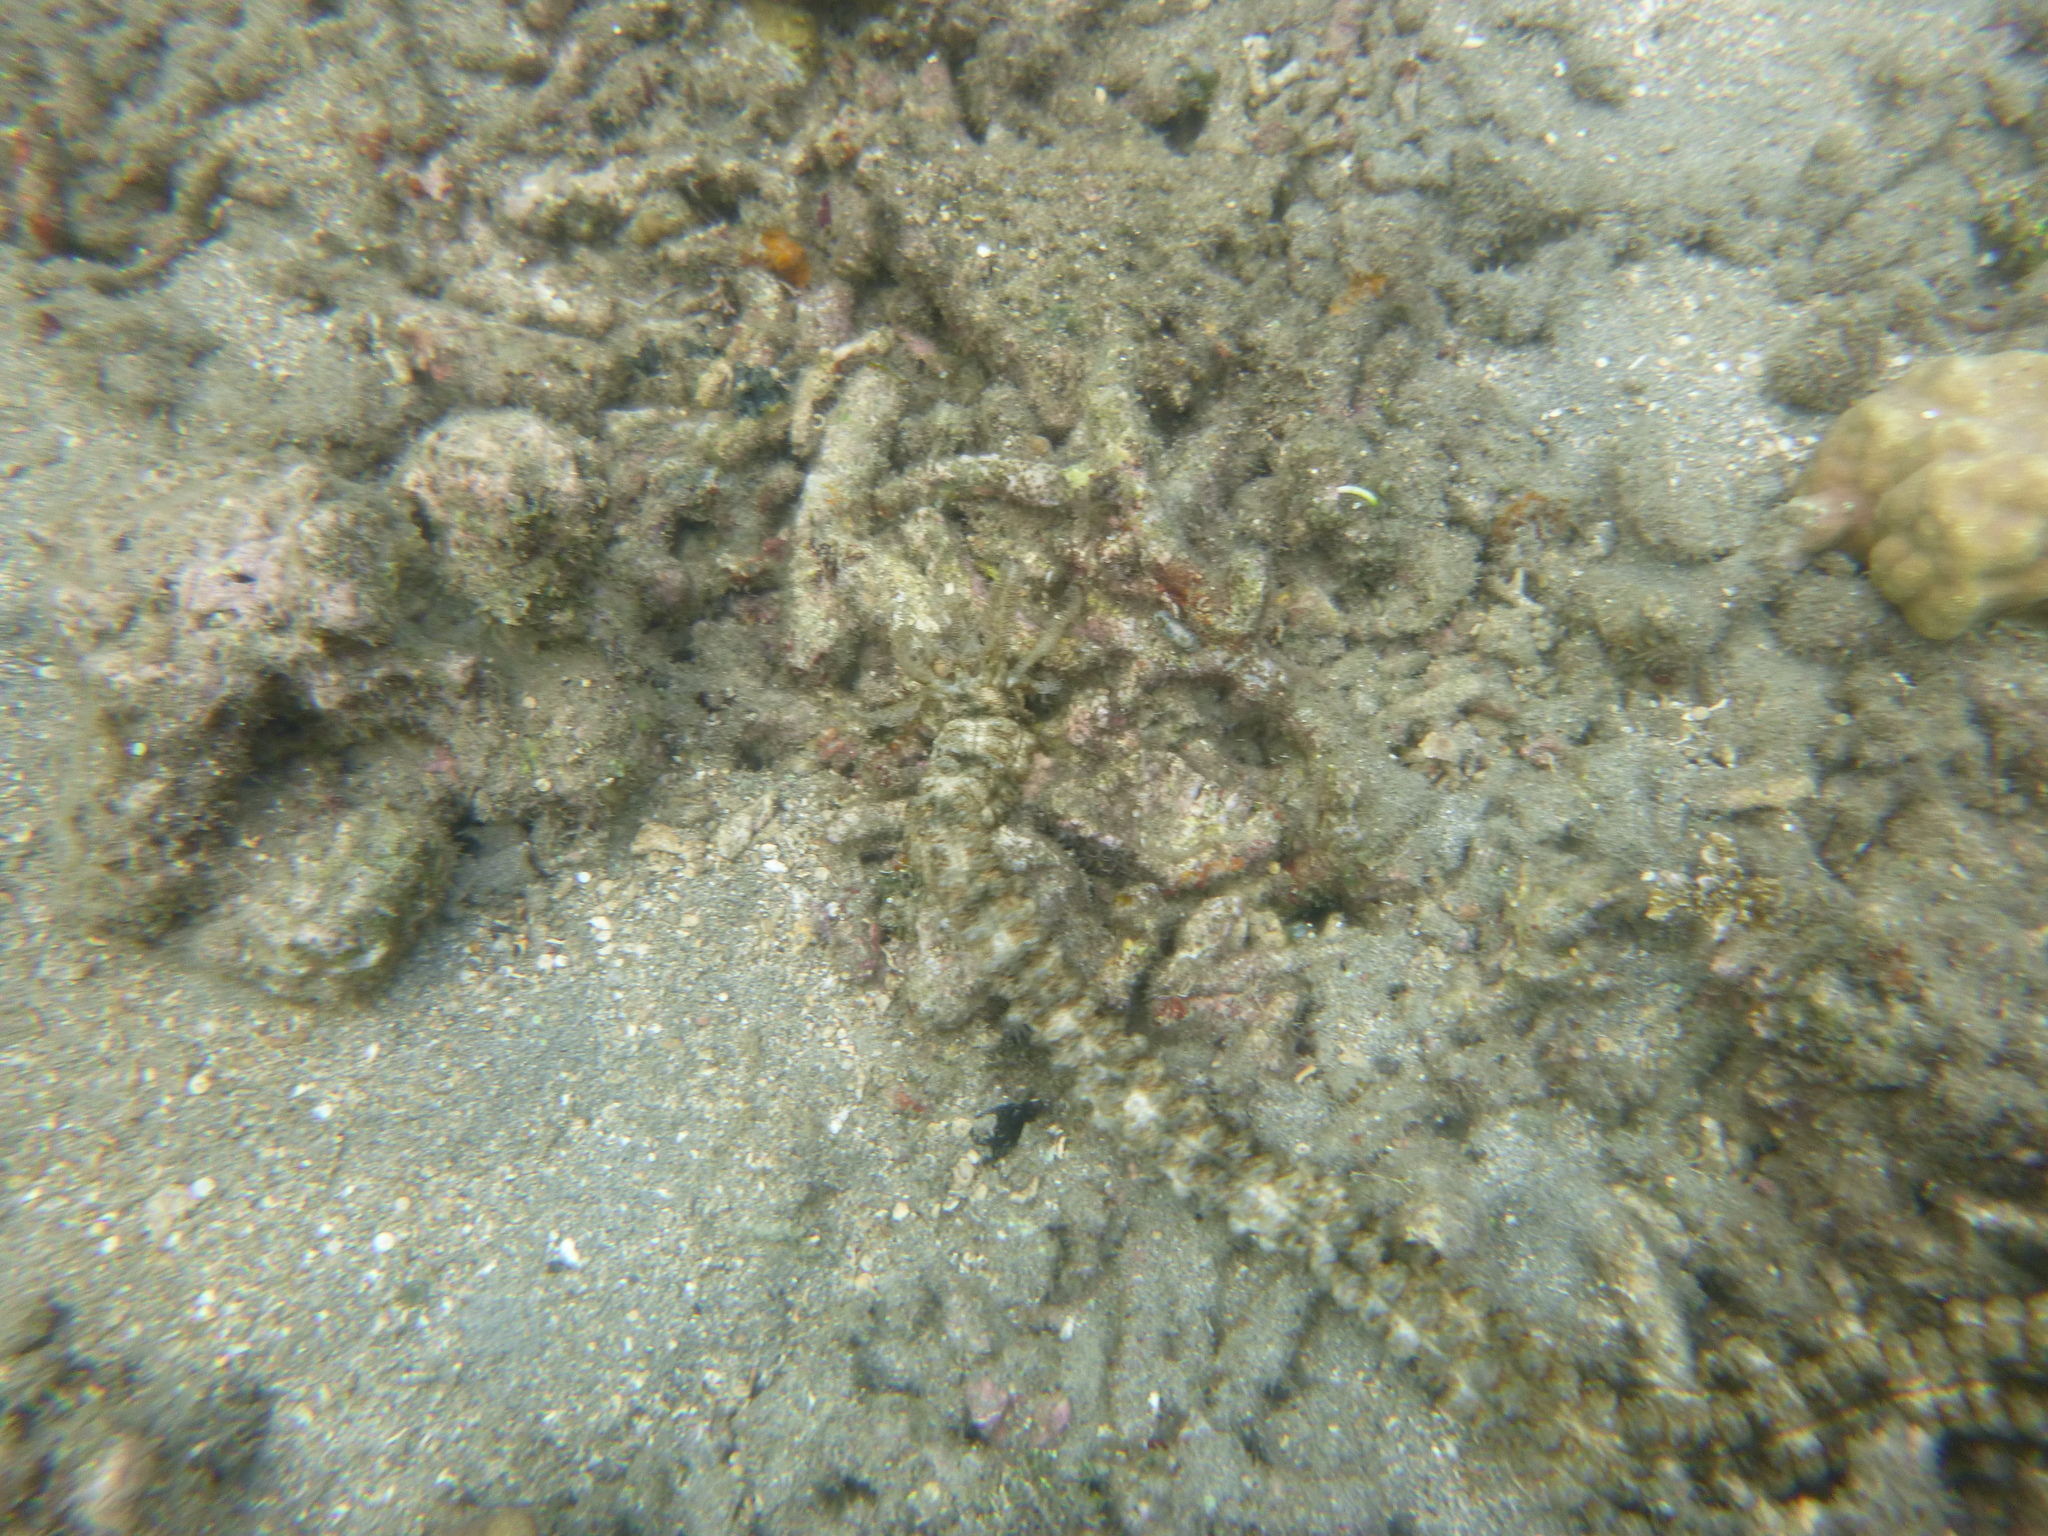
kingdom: Animalia
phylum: Echinodermata
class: Holothuroidea
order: Apodida
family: Synaptidae
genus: Synapta
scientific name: Synapta maculata
